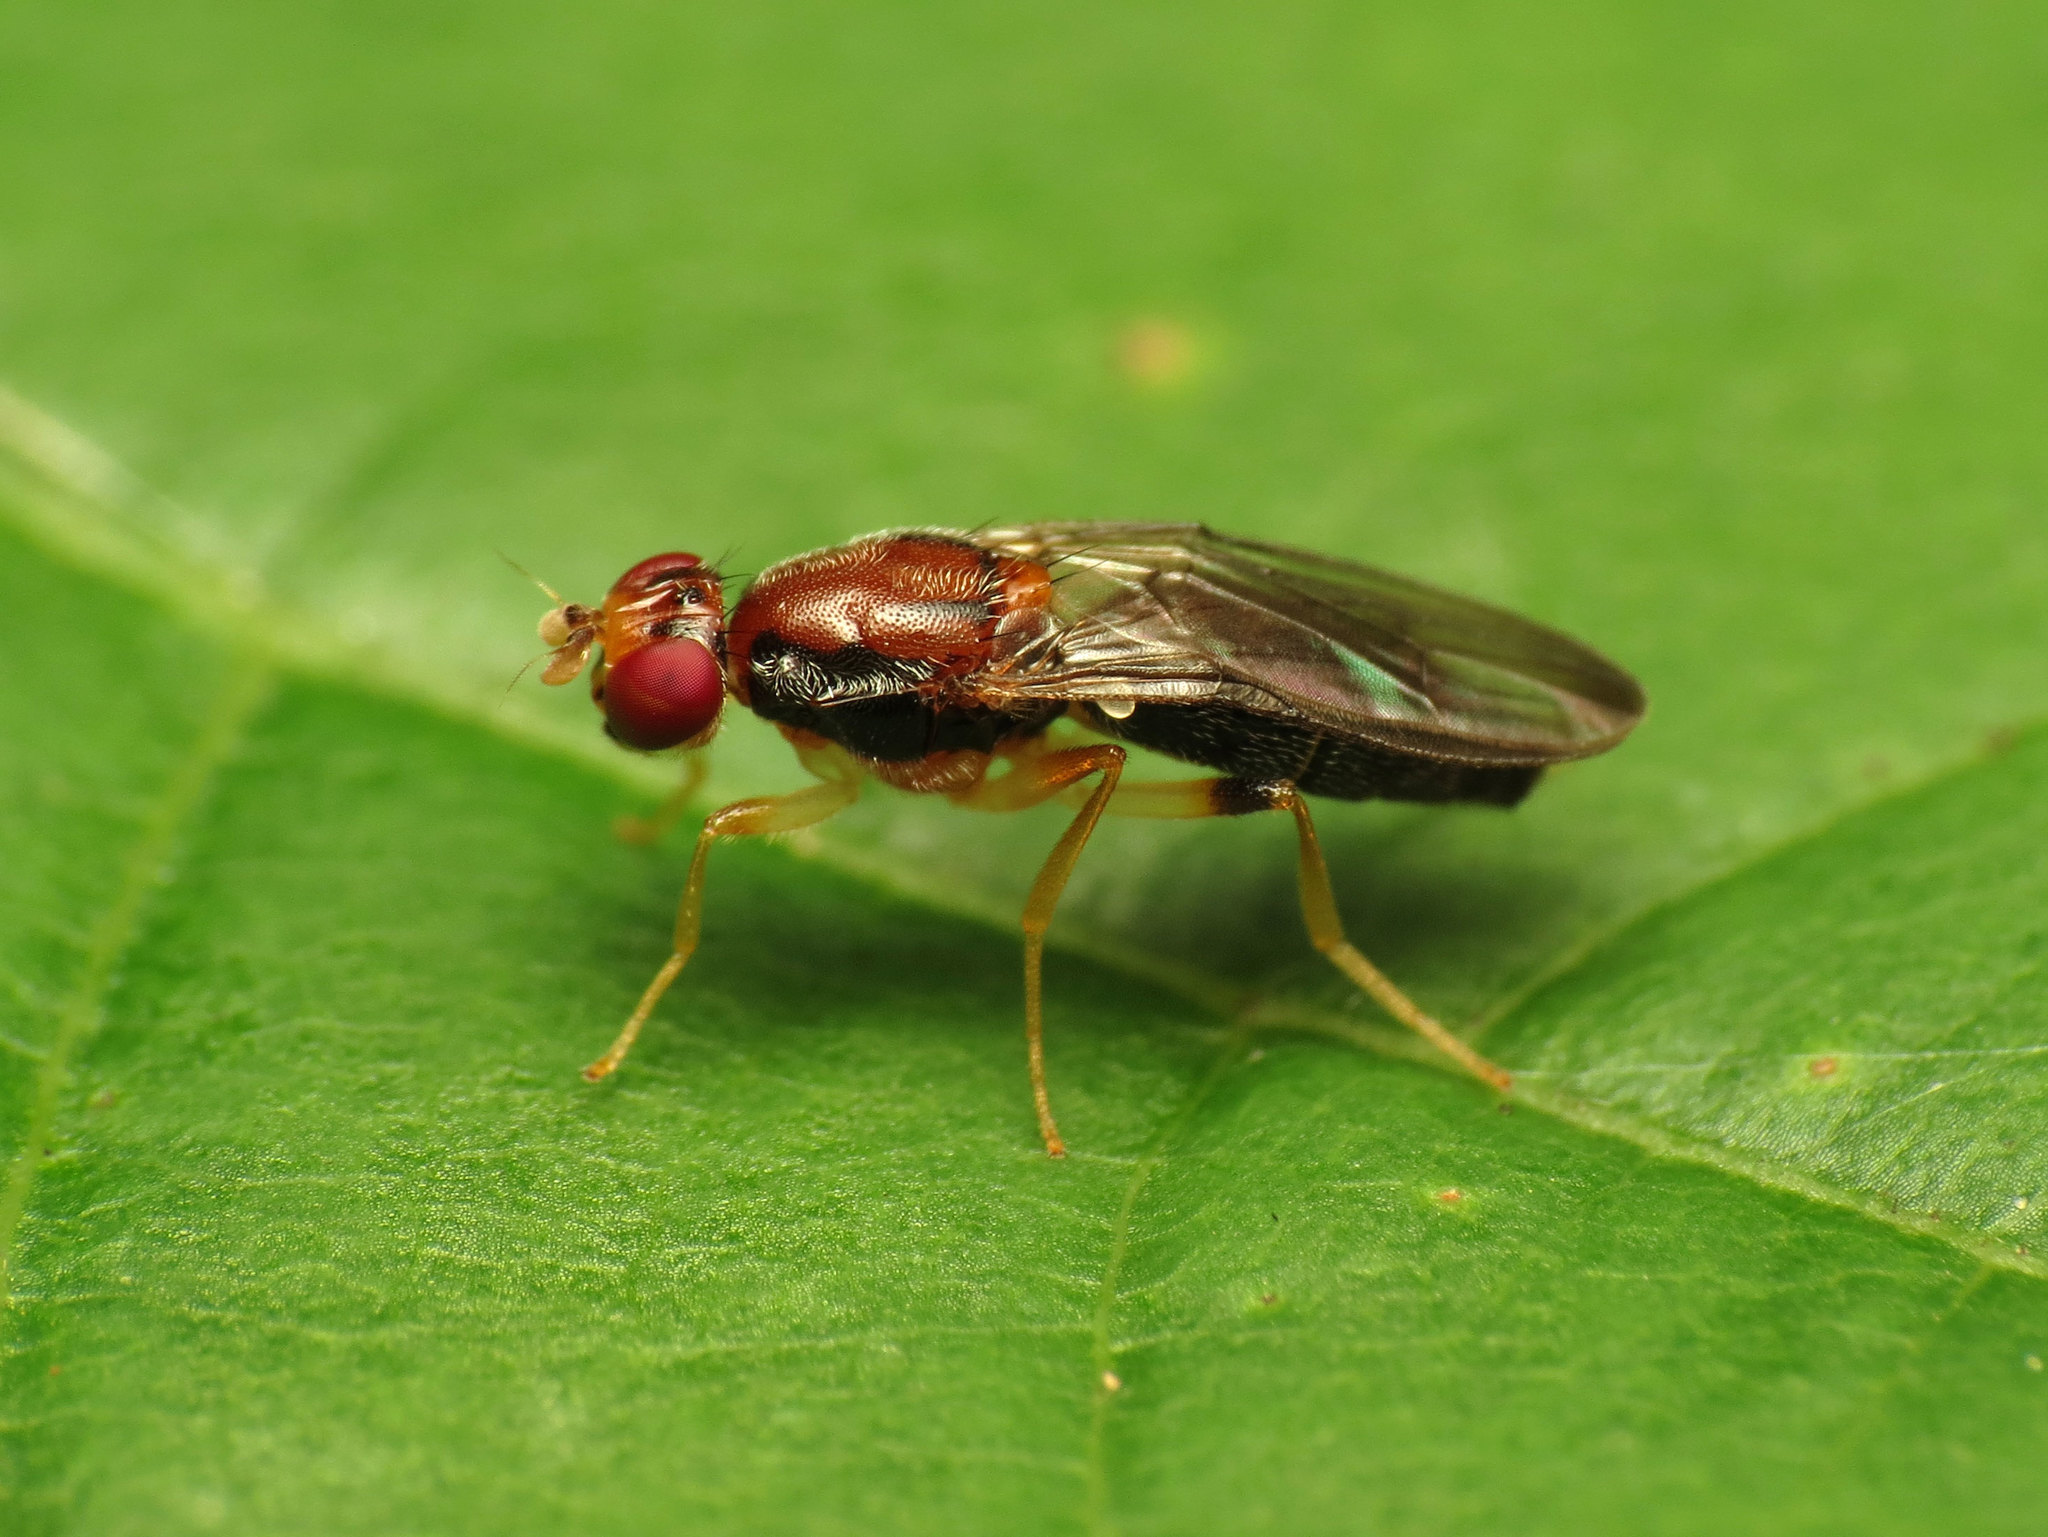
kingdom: Animalia
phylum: Arthropoda
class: Insecta
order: Diptera
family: Psilidae
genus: Chyliza
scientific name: Chyliza apicalis
